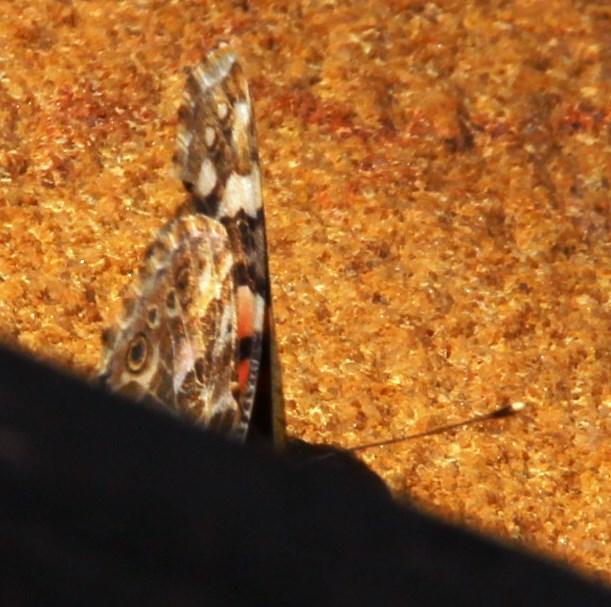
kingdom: Animalia
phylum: Arthropoda
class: Insecta
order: Lepidoptera
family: Nymphalidae
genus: Vanessa
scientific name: Vanessa cardui
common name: Painted lady
